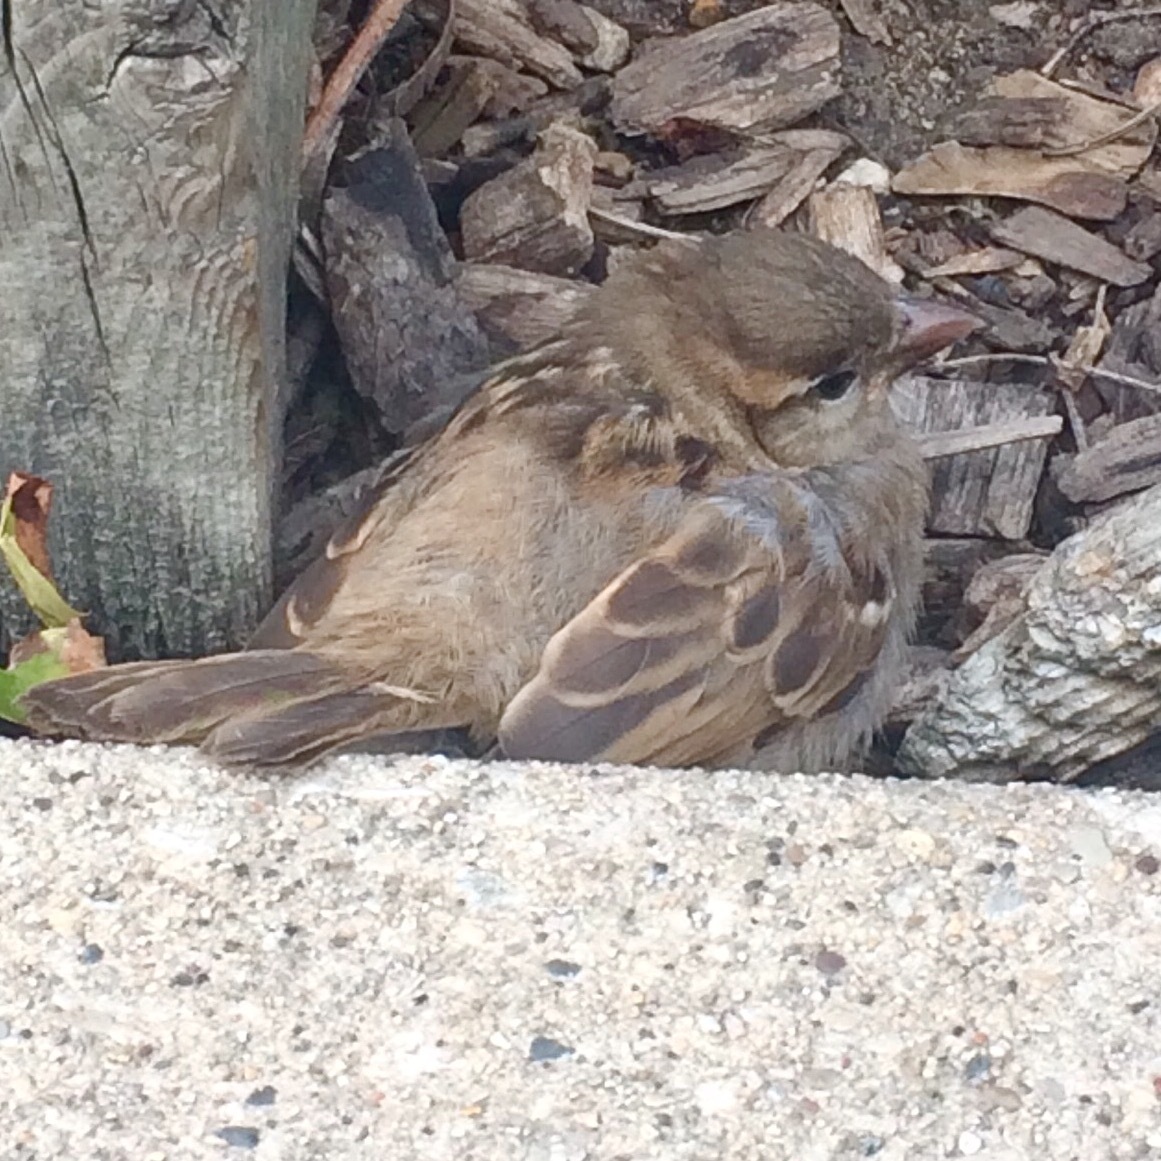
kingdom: Animalia
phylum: Chordata
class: Aves
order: Passeriformes
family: Passeridae
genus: Passer
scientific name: Passer domesticus
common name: House sparrow
